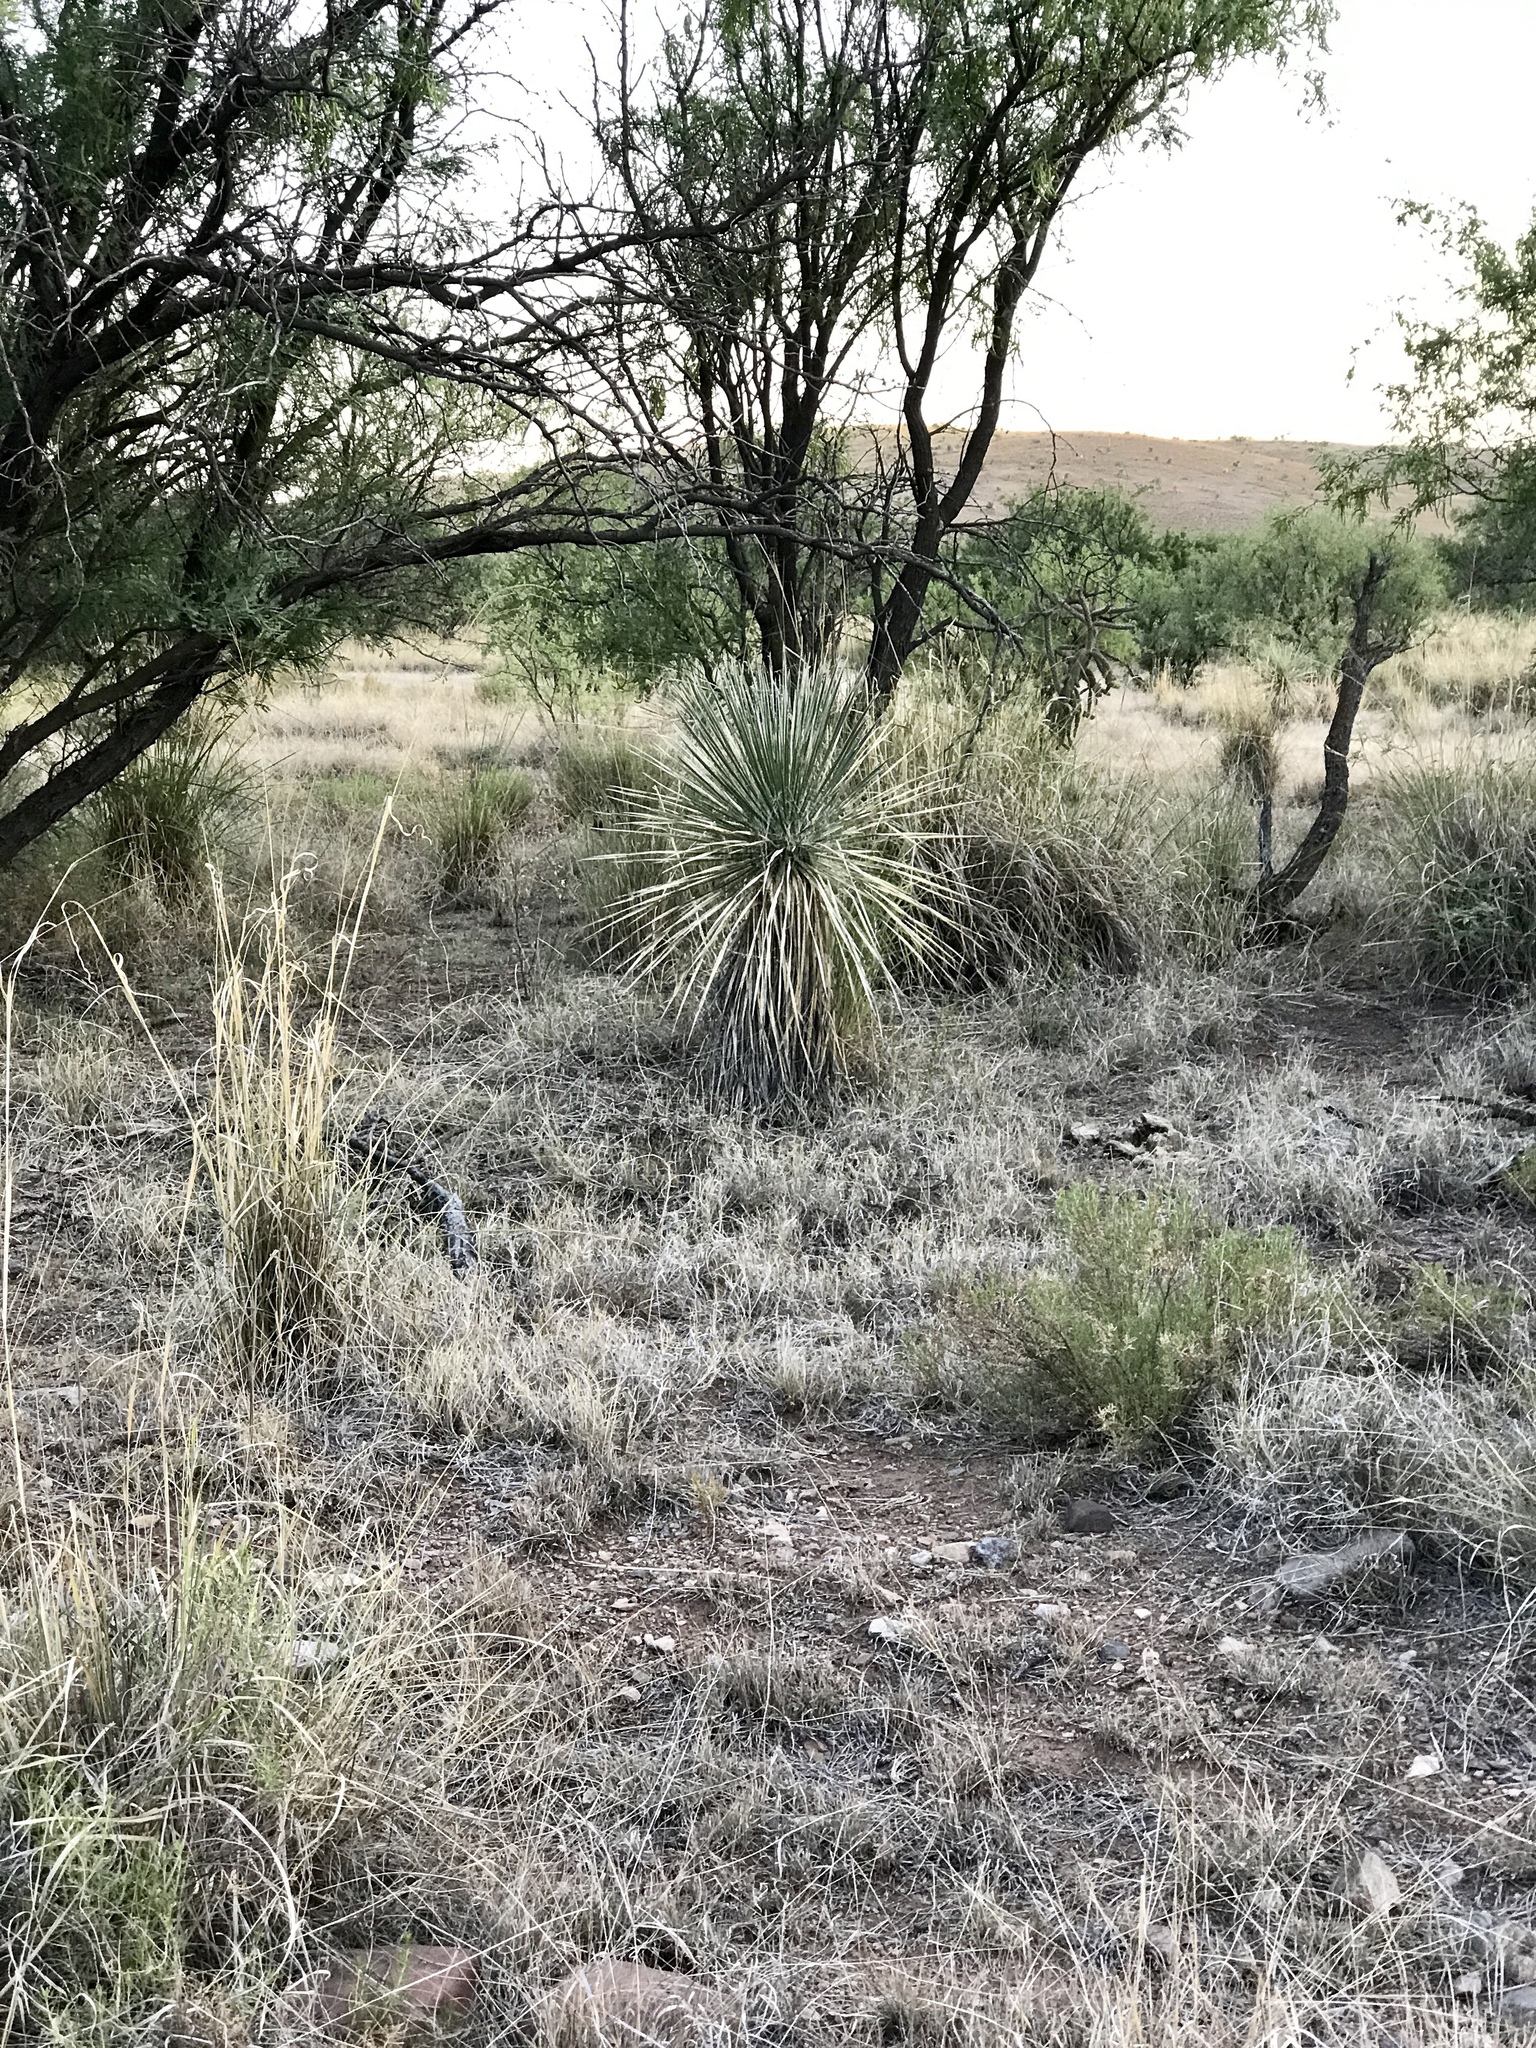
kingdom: Plantae
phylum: Tracheophyta
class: Liliopsida
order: Asparagales
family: Asparagaceae
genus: Yucca
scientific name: Yucca elata
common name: Palmella
